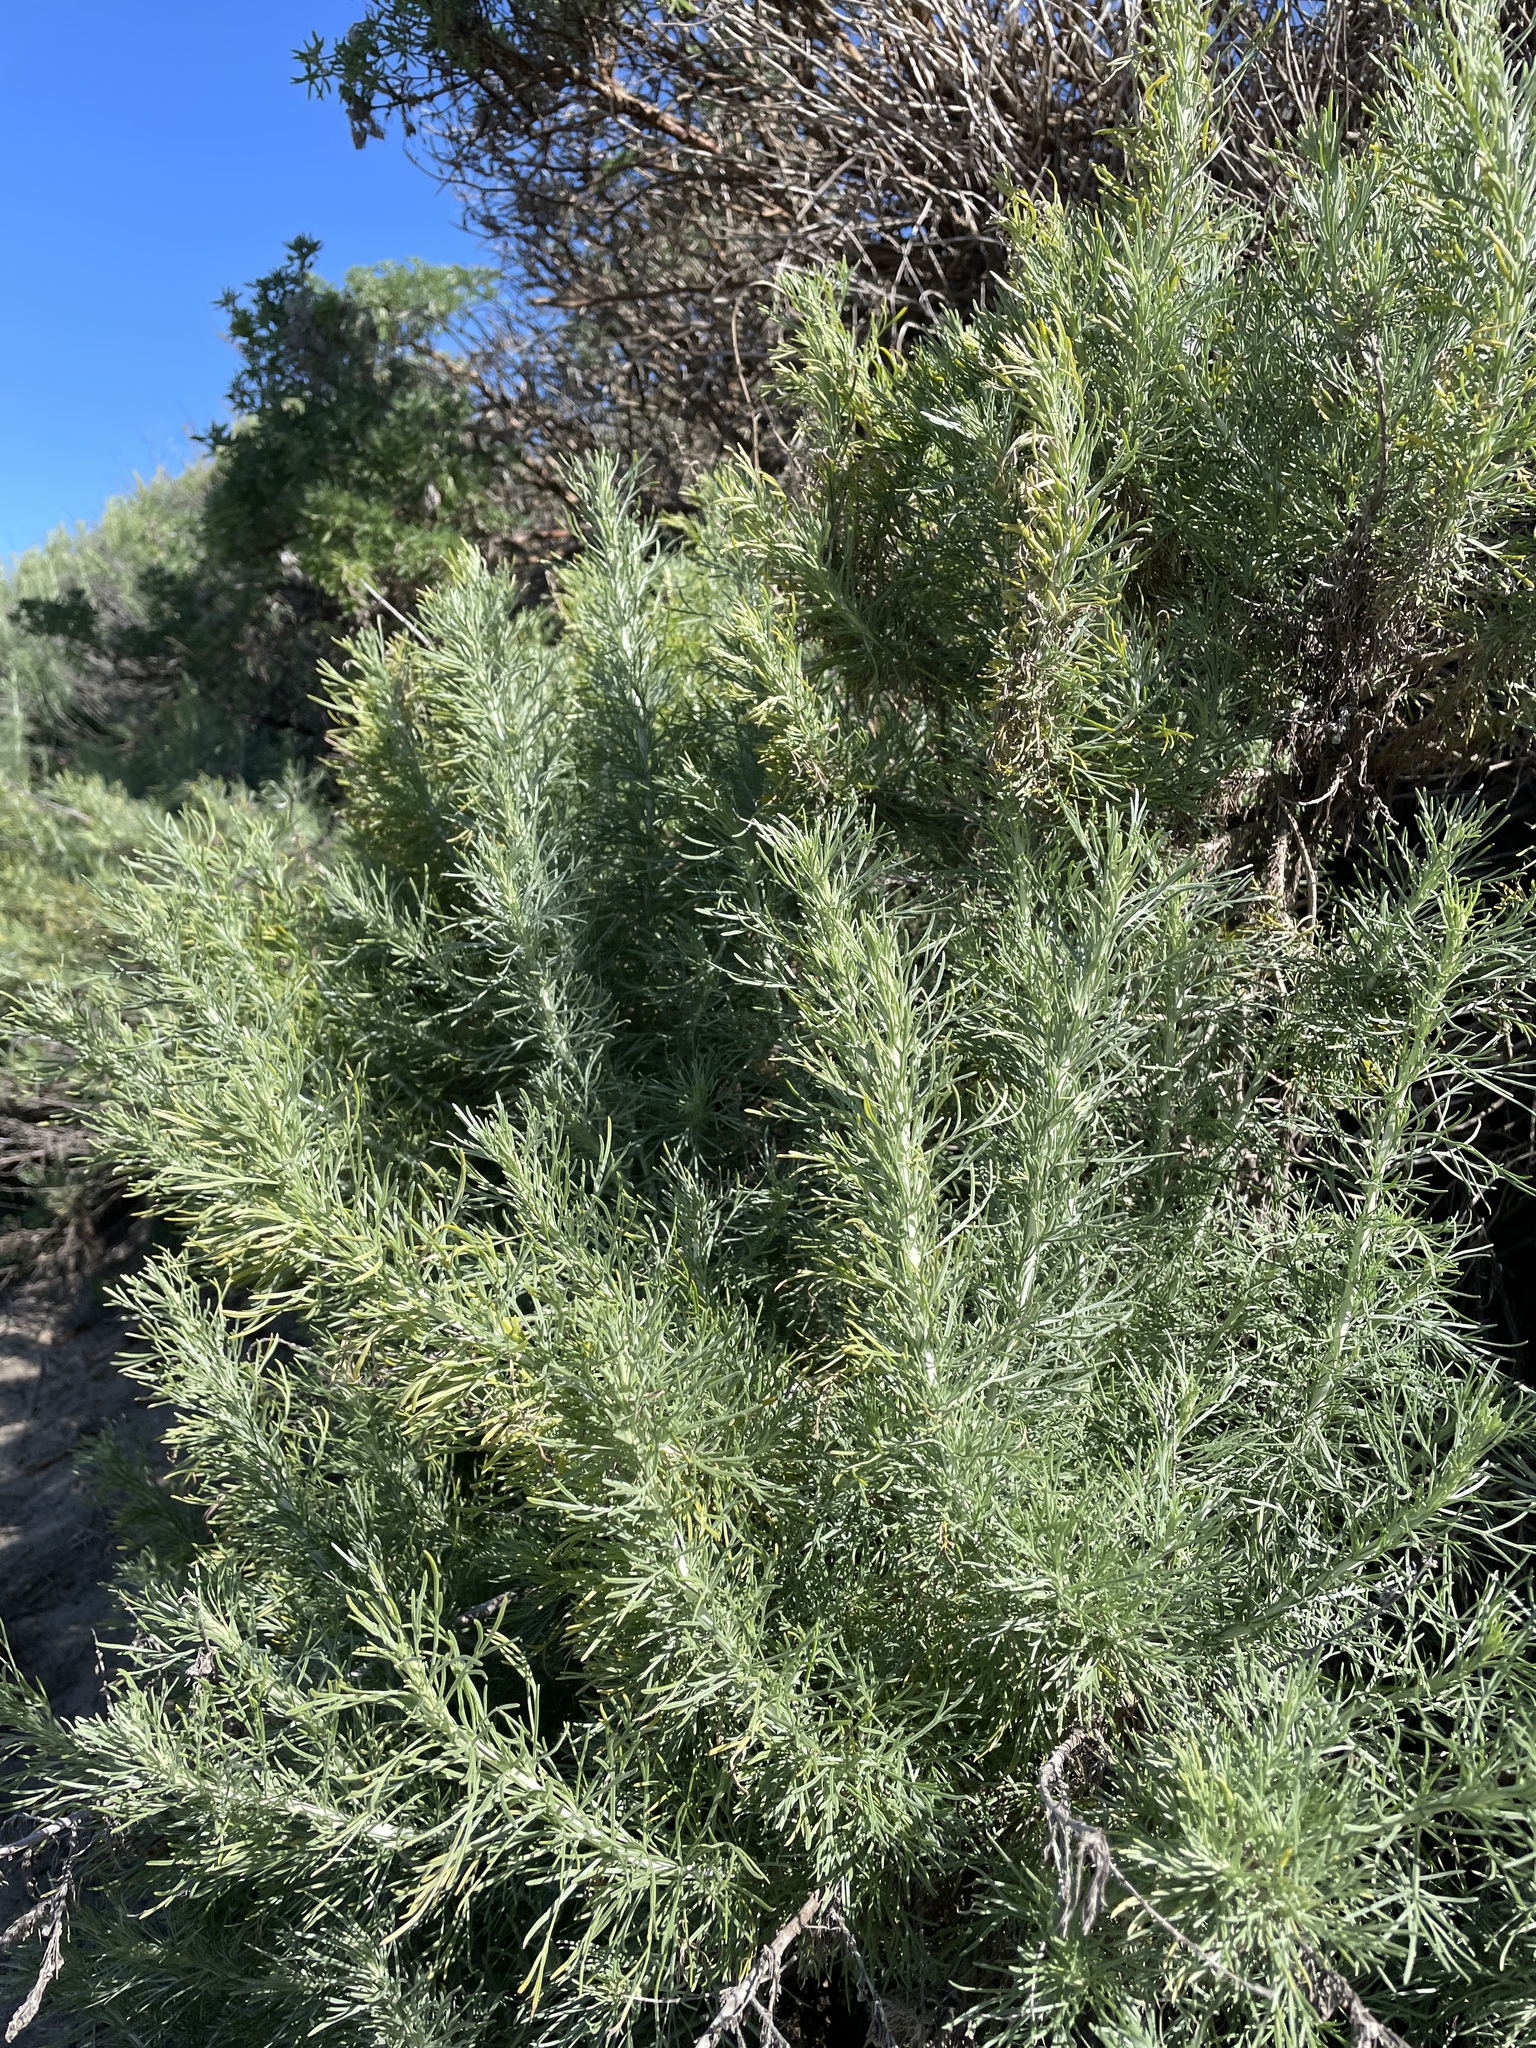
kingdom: Plantae
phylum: Tracheophyta
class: Magnoliopsida
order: Asterales
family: Asteraceae
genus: Artemisia
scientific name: Artemisia californica
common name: California sagebrush
